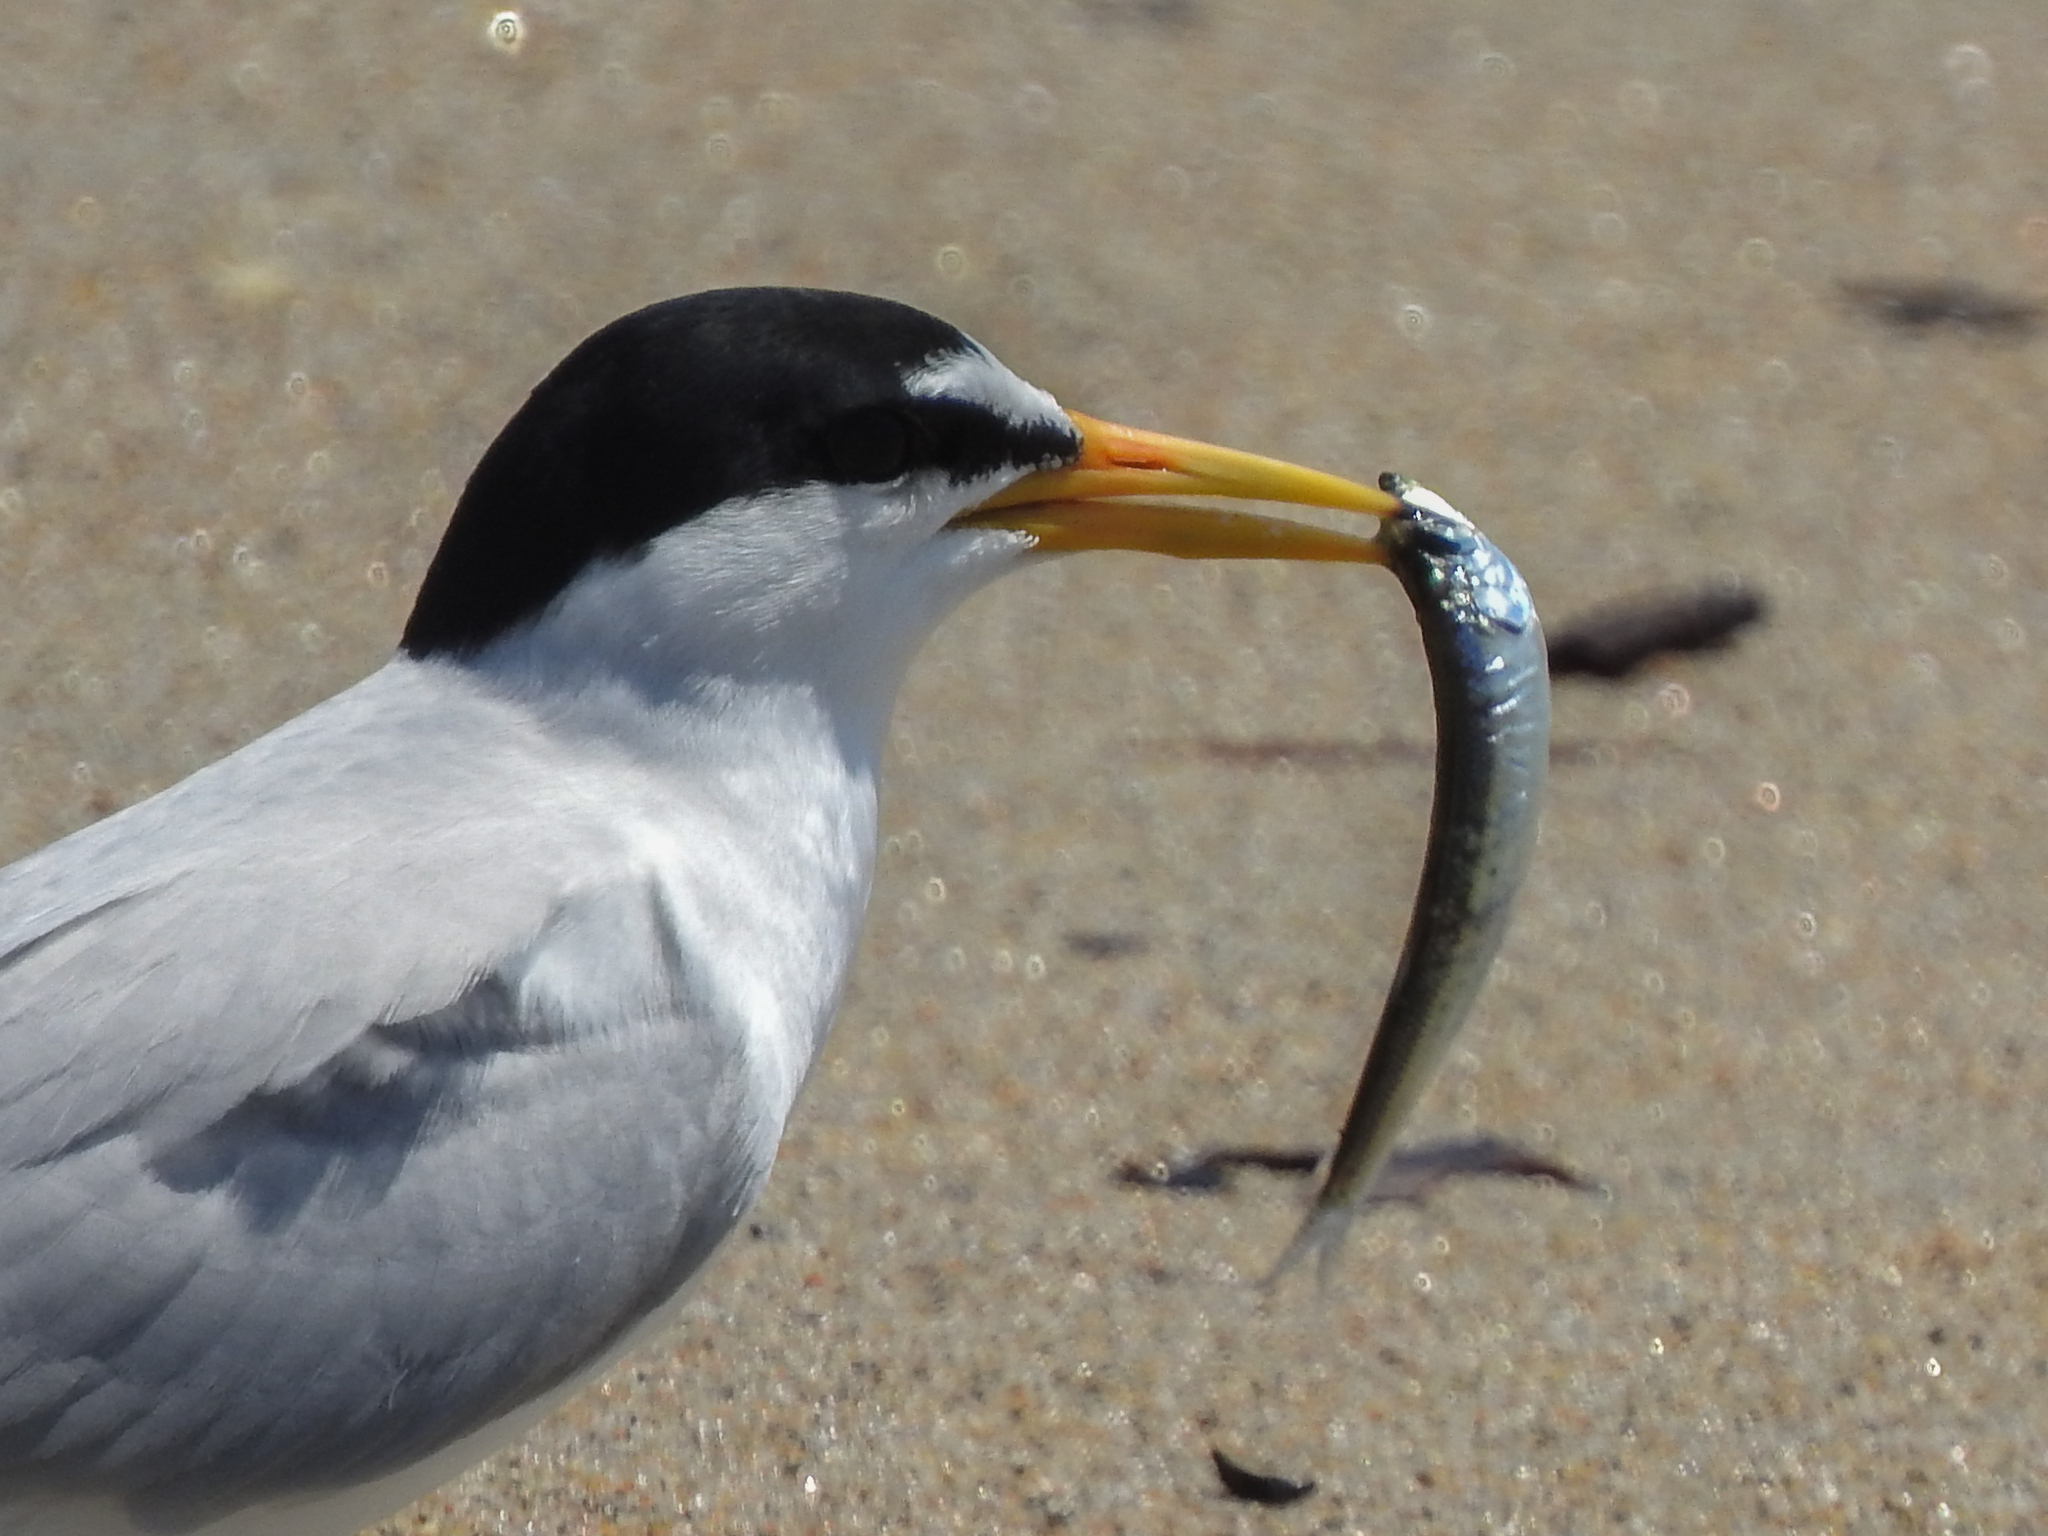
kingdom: Animalia
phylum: Chordata
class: Aves
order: Charadriiformes
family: Laridae
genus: Sternula
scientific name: Sternula antillarum
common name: Least tern
